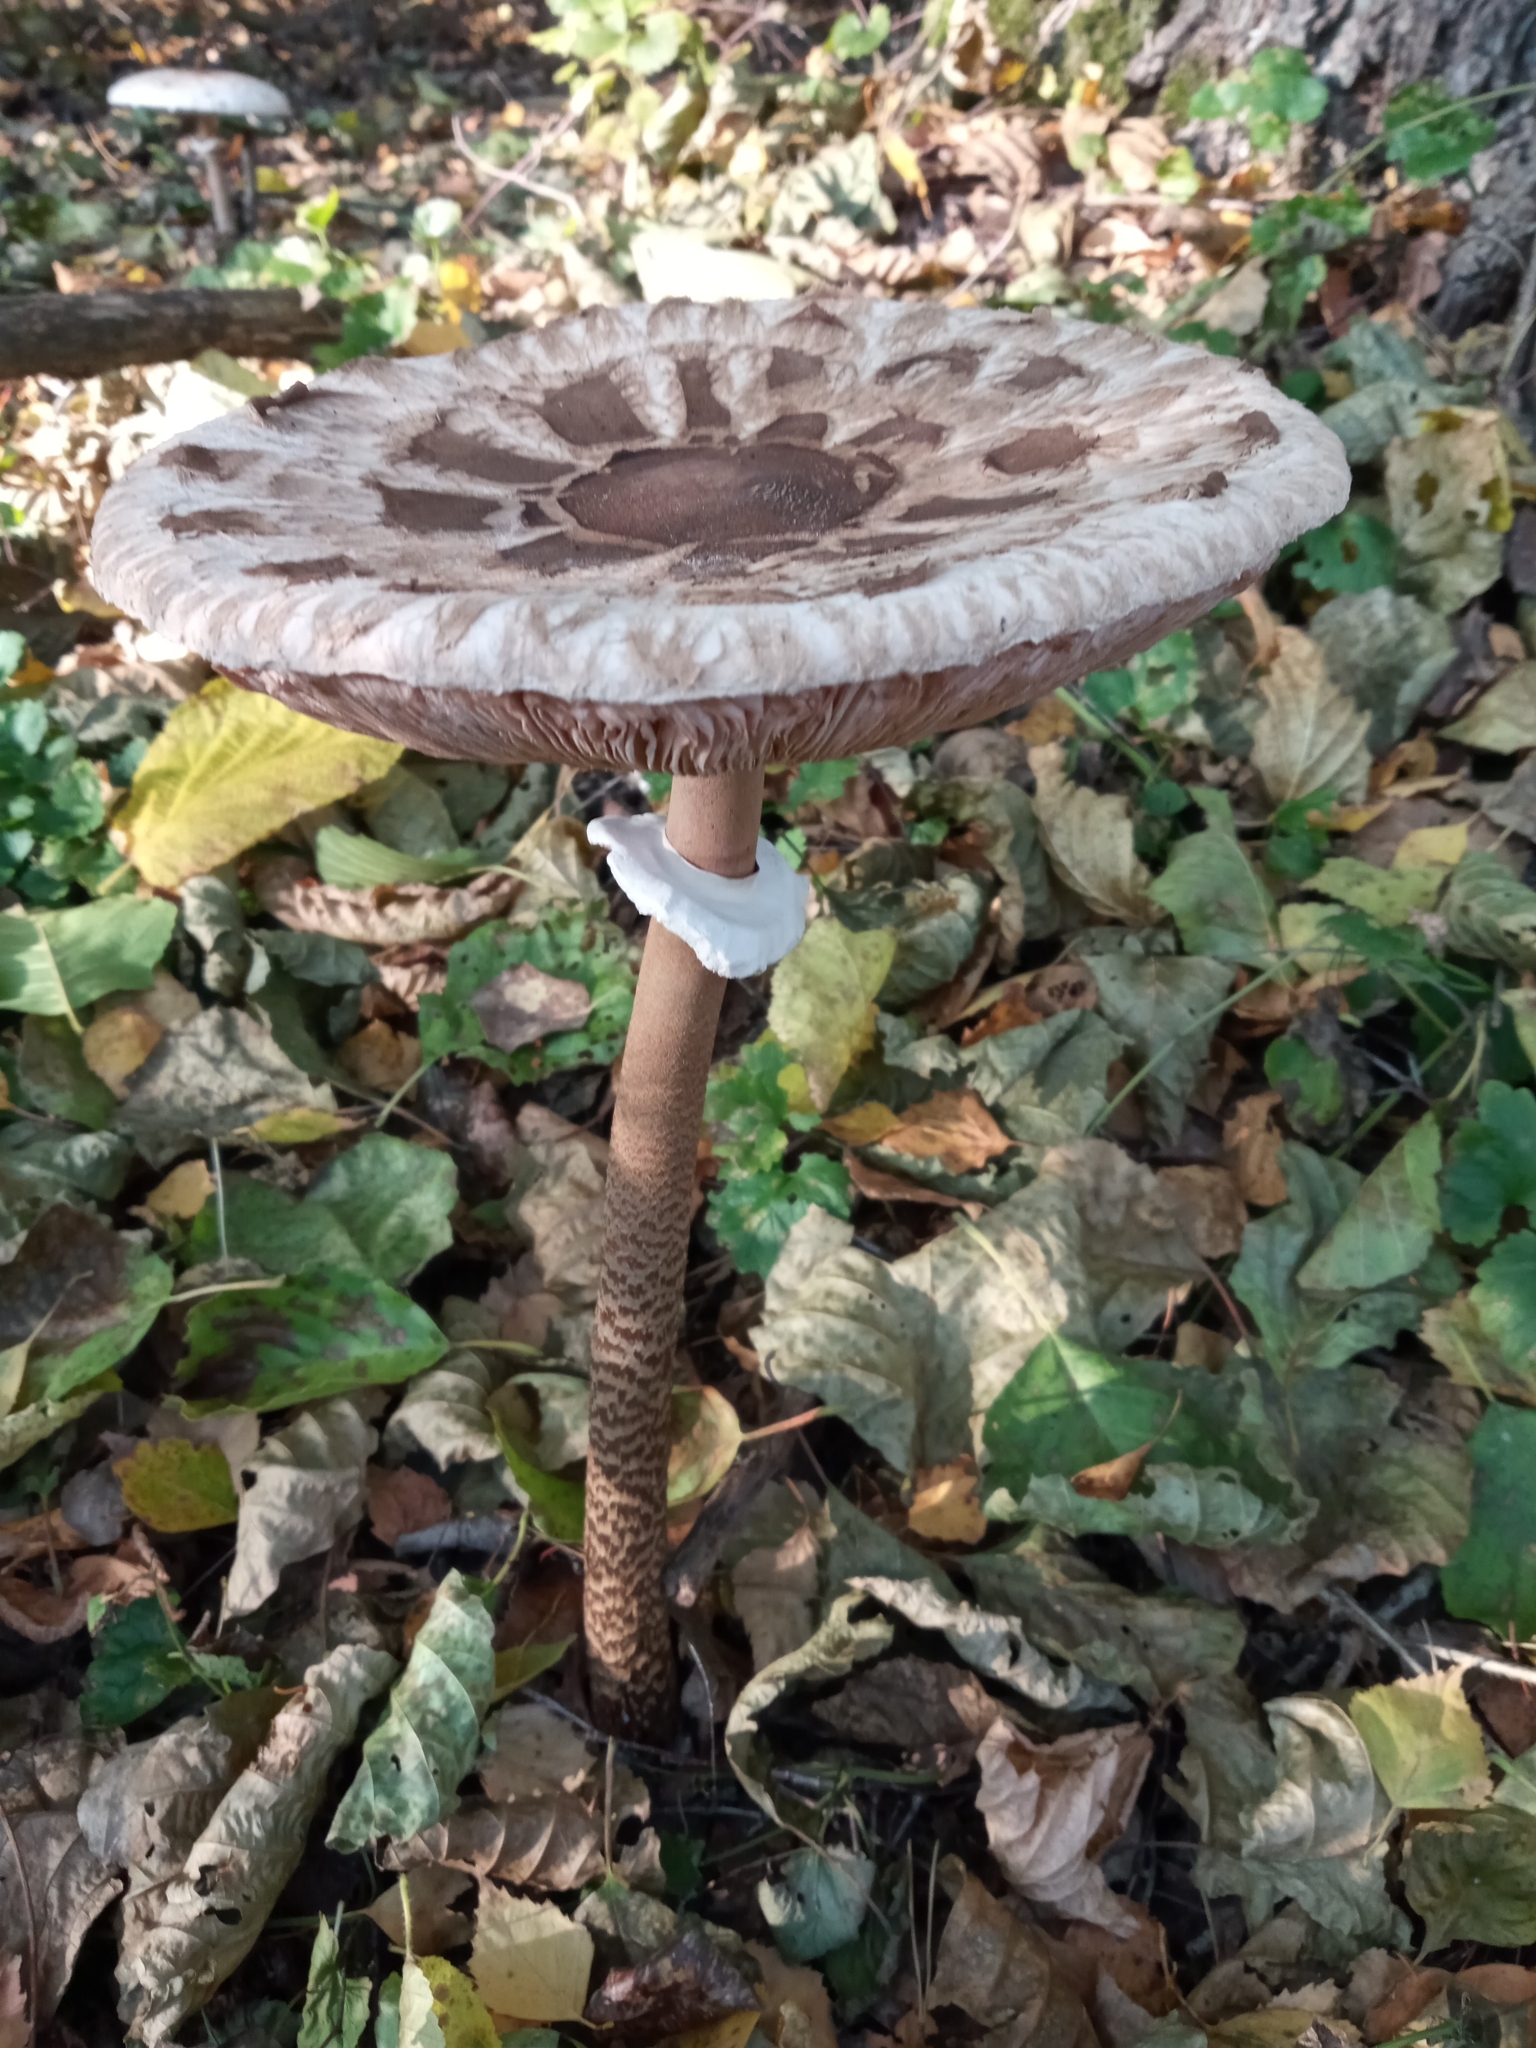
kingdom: Fungi
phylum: Basidiomycota
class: Agaricomycetes
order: Agaricales
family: Agaricaceae
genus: Macrolepiota
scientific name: Macrolepiota procera
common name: Parasol
